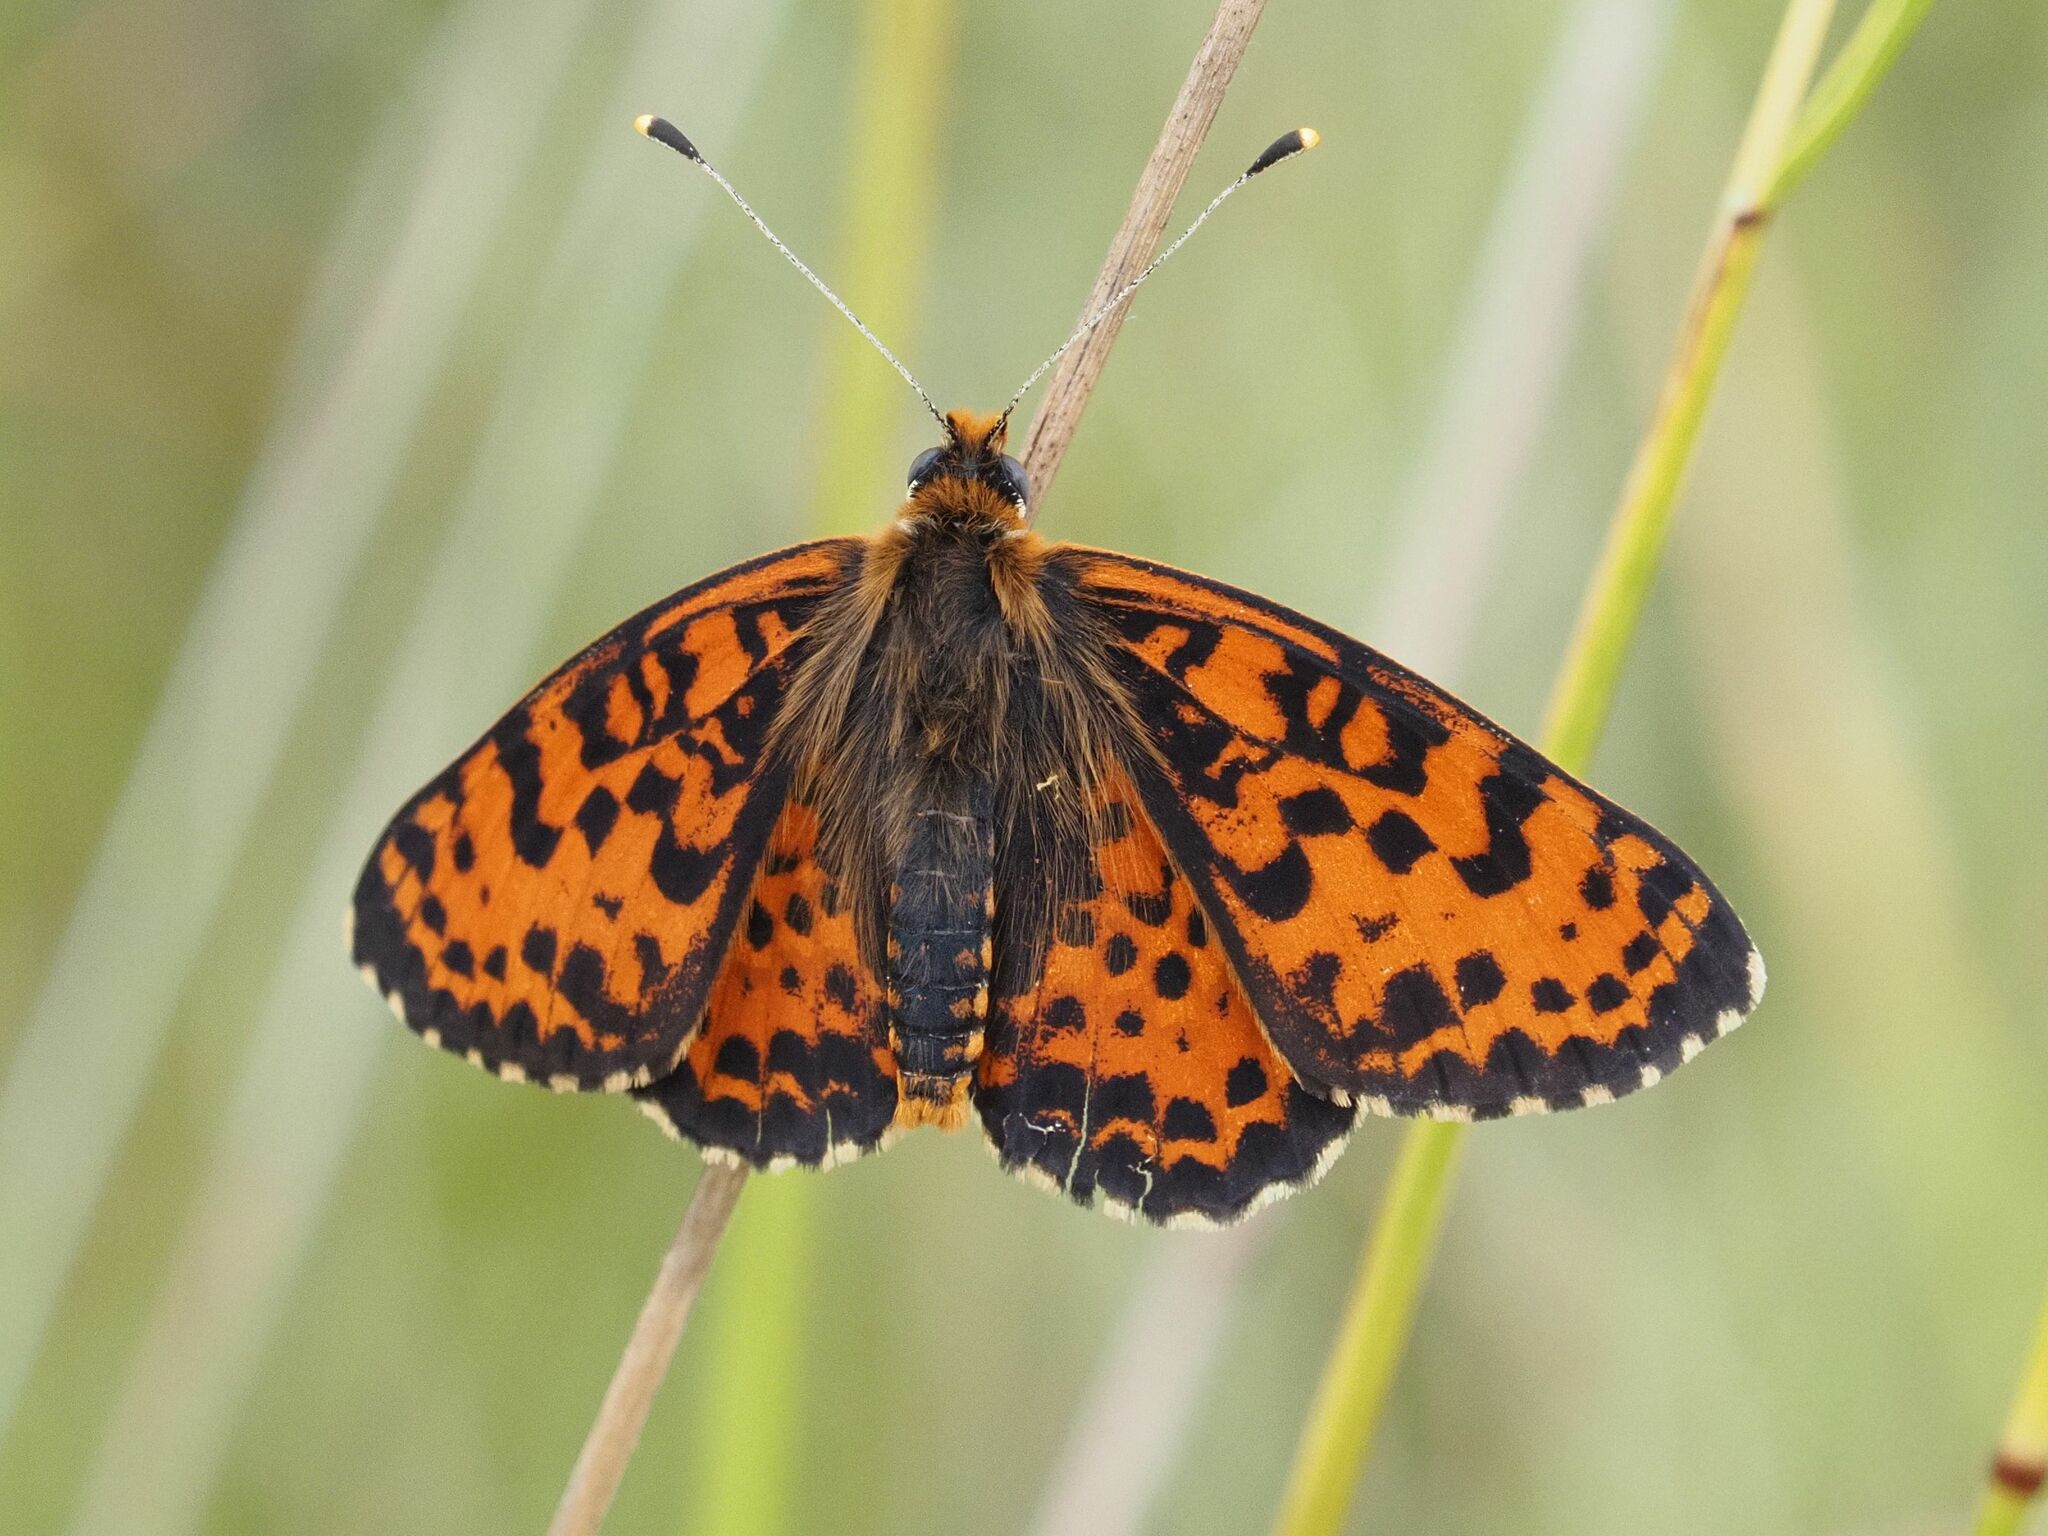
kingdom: Animalia
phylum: Arthropoda
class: Insecta
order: Lepidoptera
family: Nymphalidae
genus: Melitaea
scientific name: Melitaea didyma
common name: Spotted fritillary
